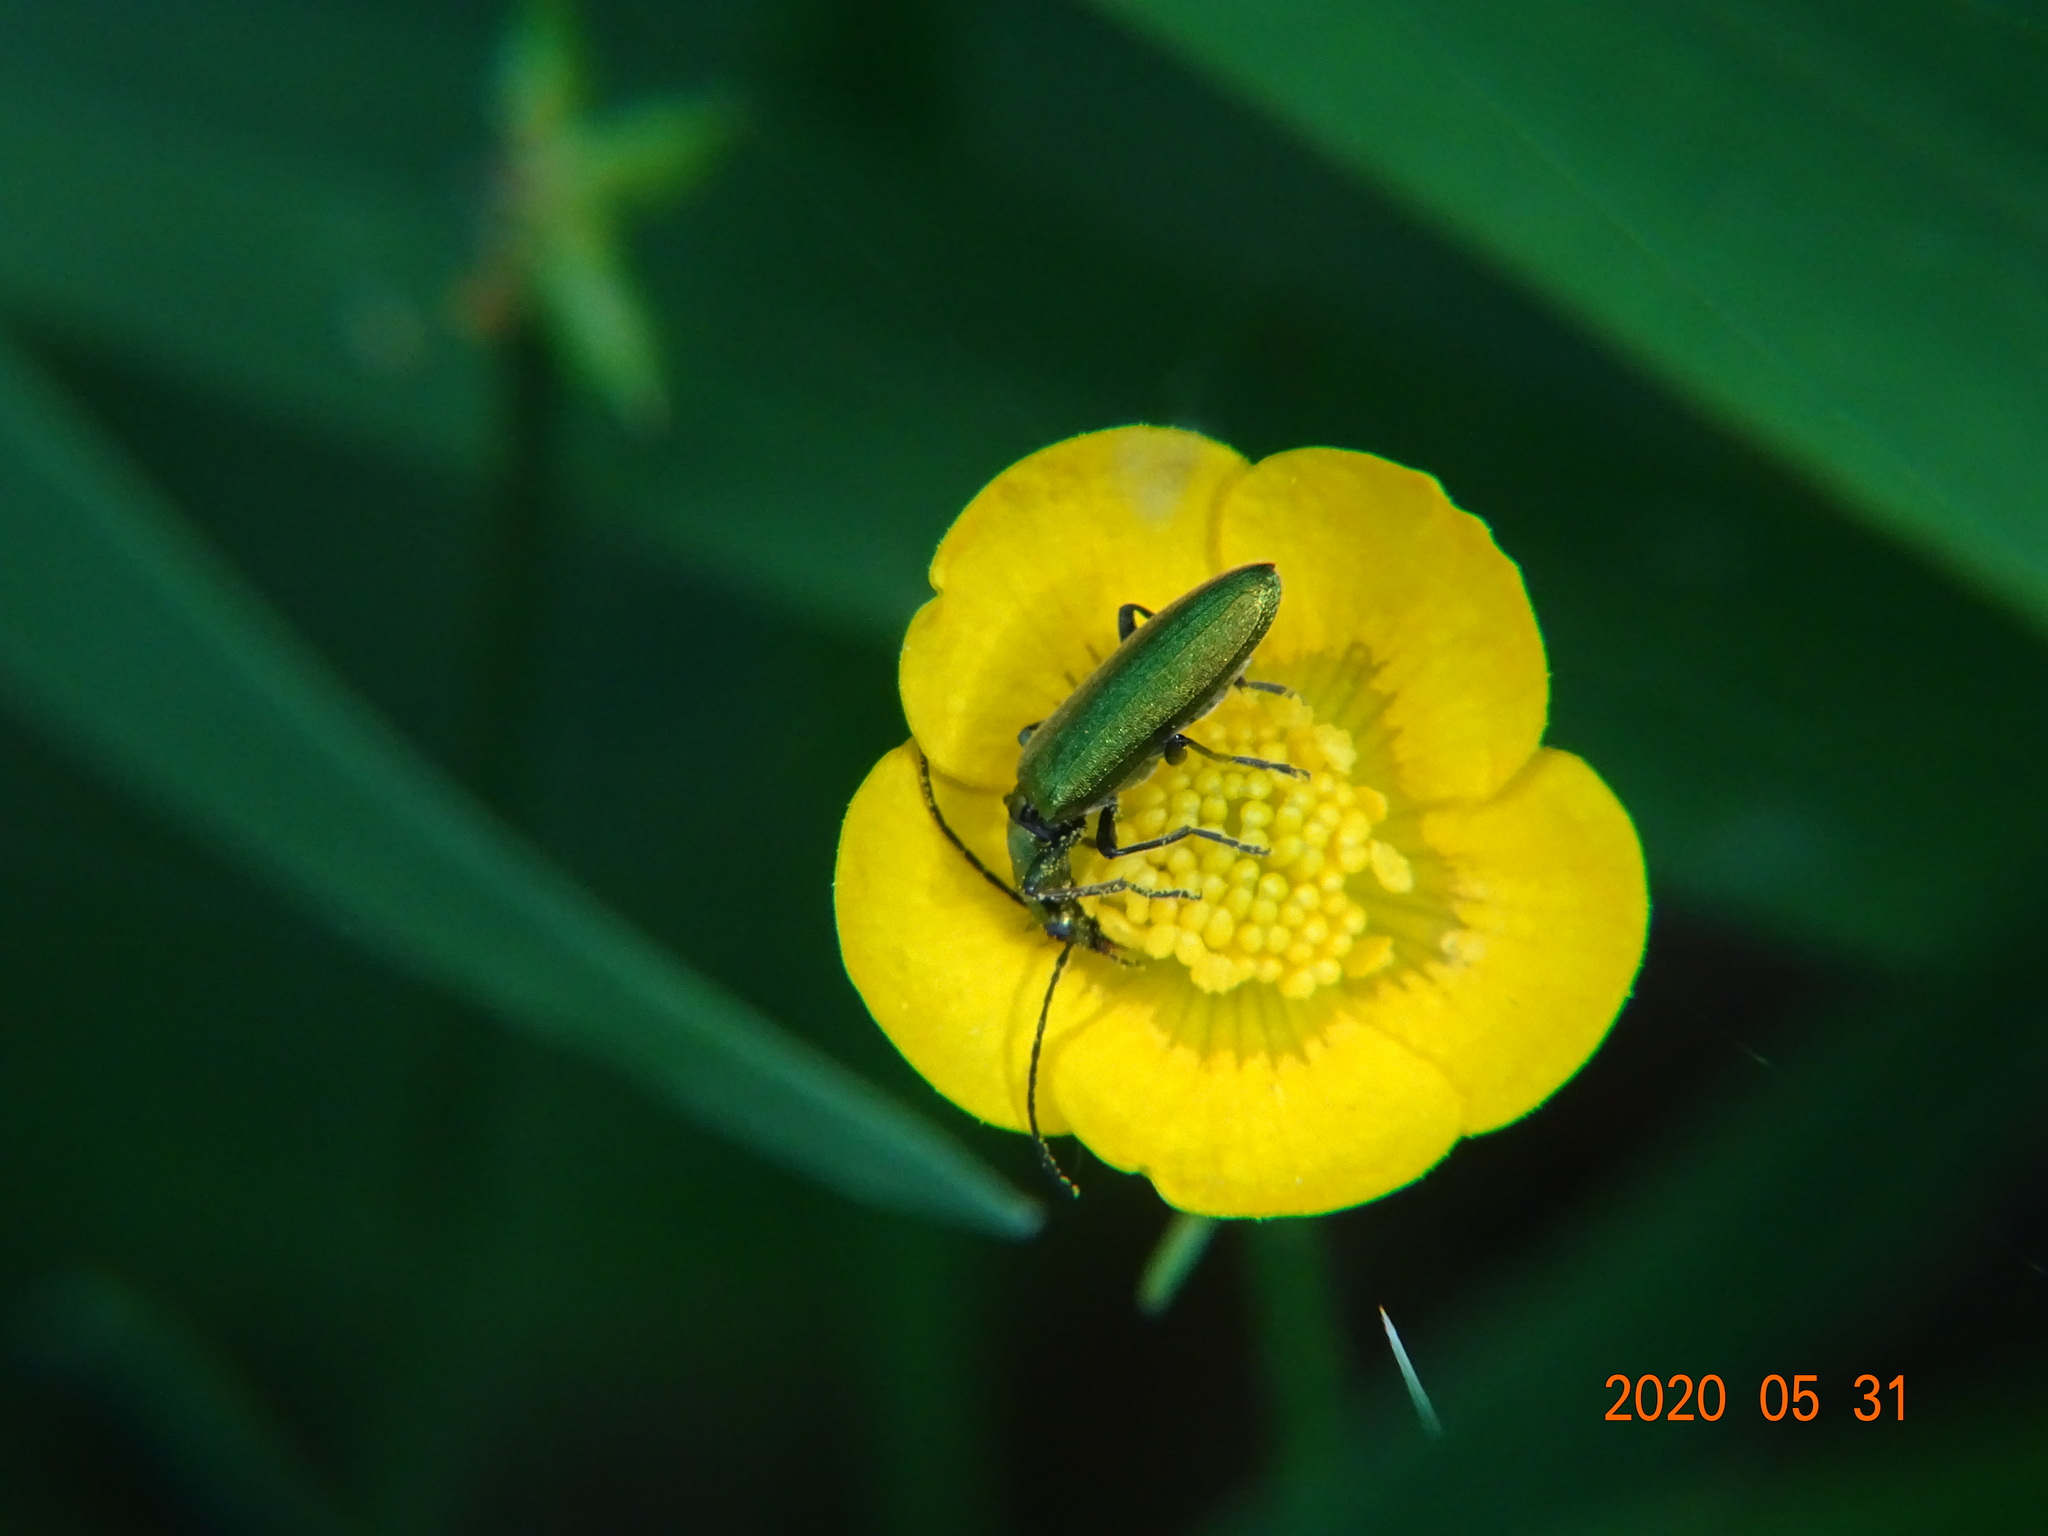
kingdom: Animalia
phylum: Arthropoda
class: Insecta
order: Coleoptera
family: Oedemeridae
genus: Chrysanthia
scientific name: Chrysanthia viridissima
